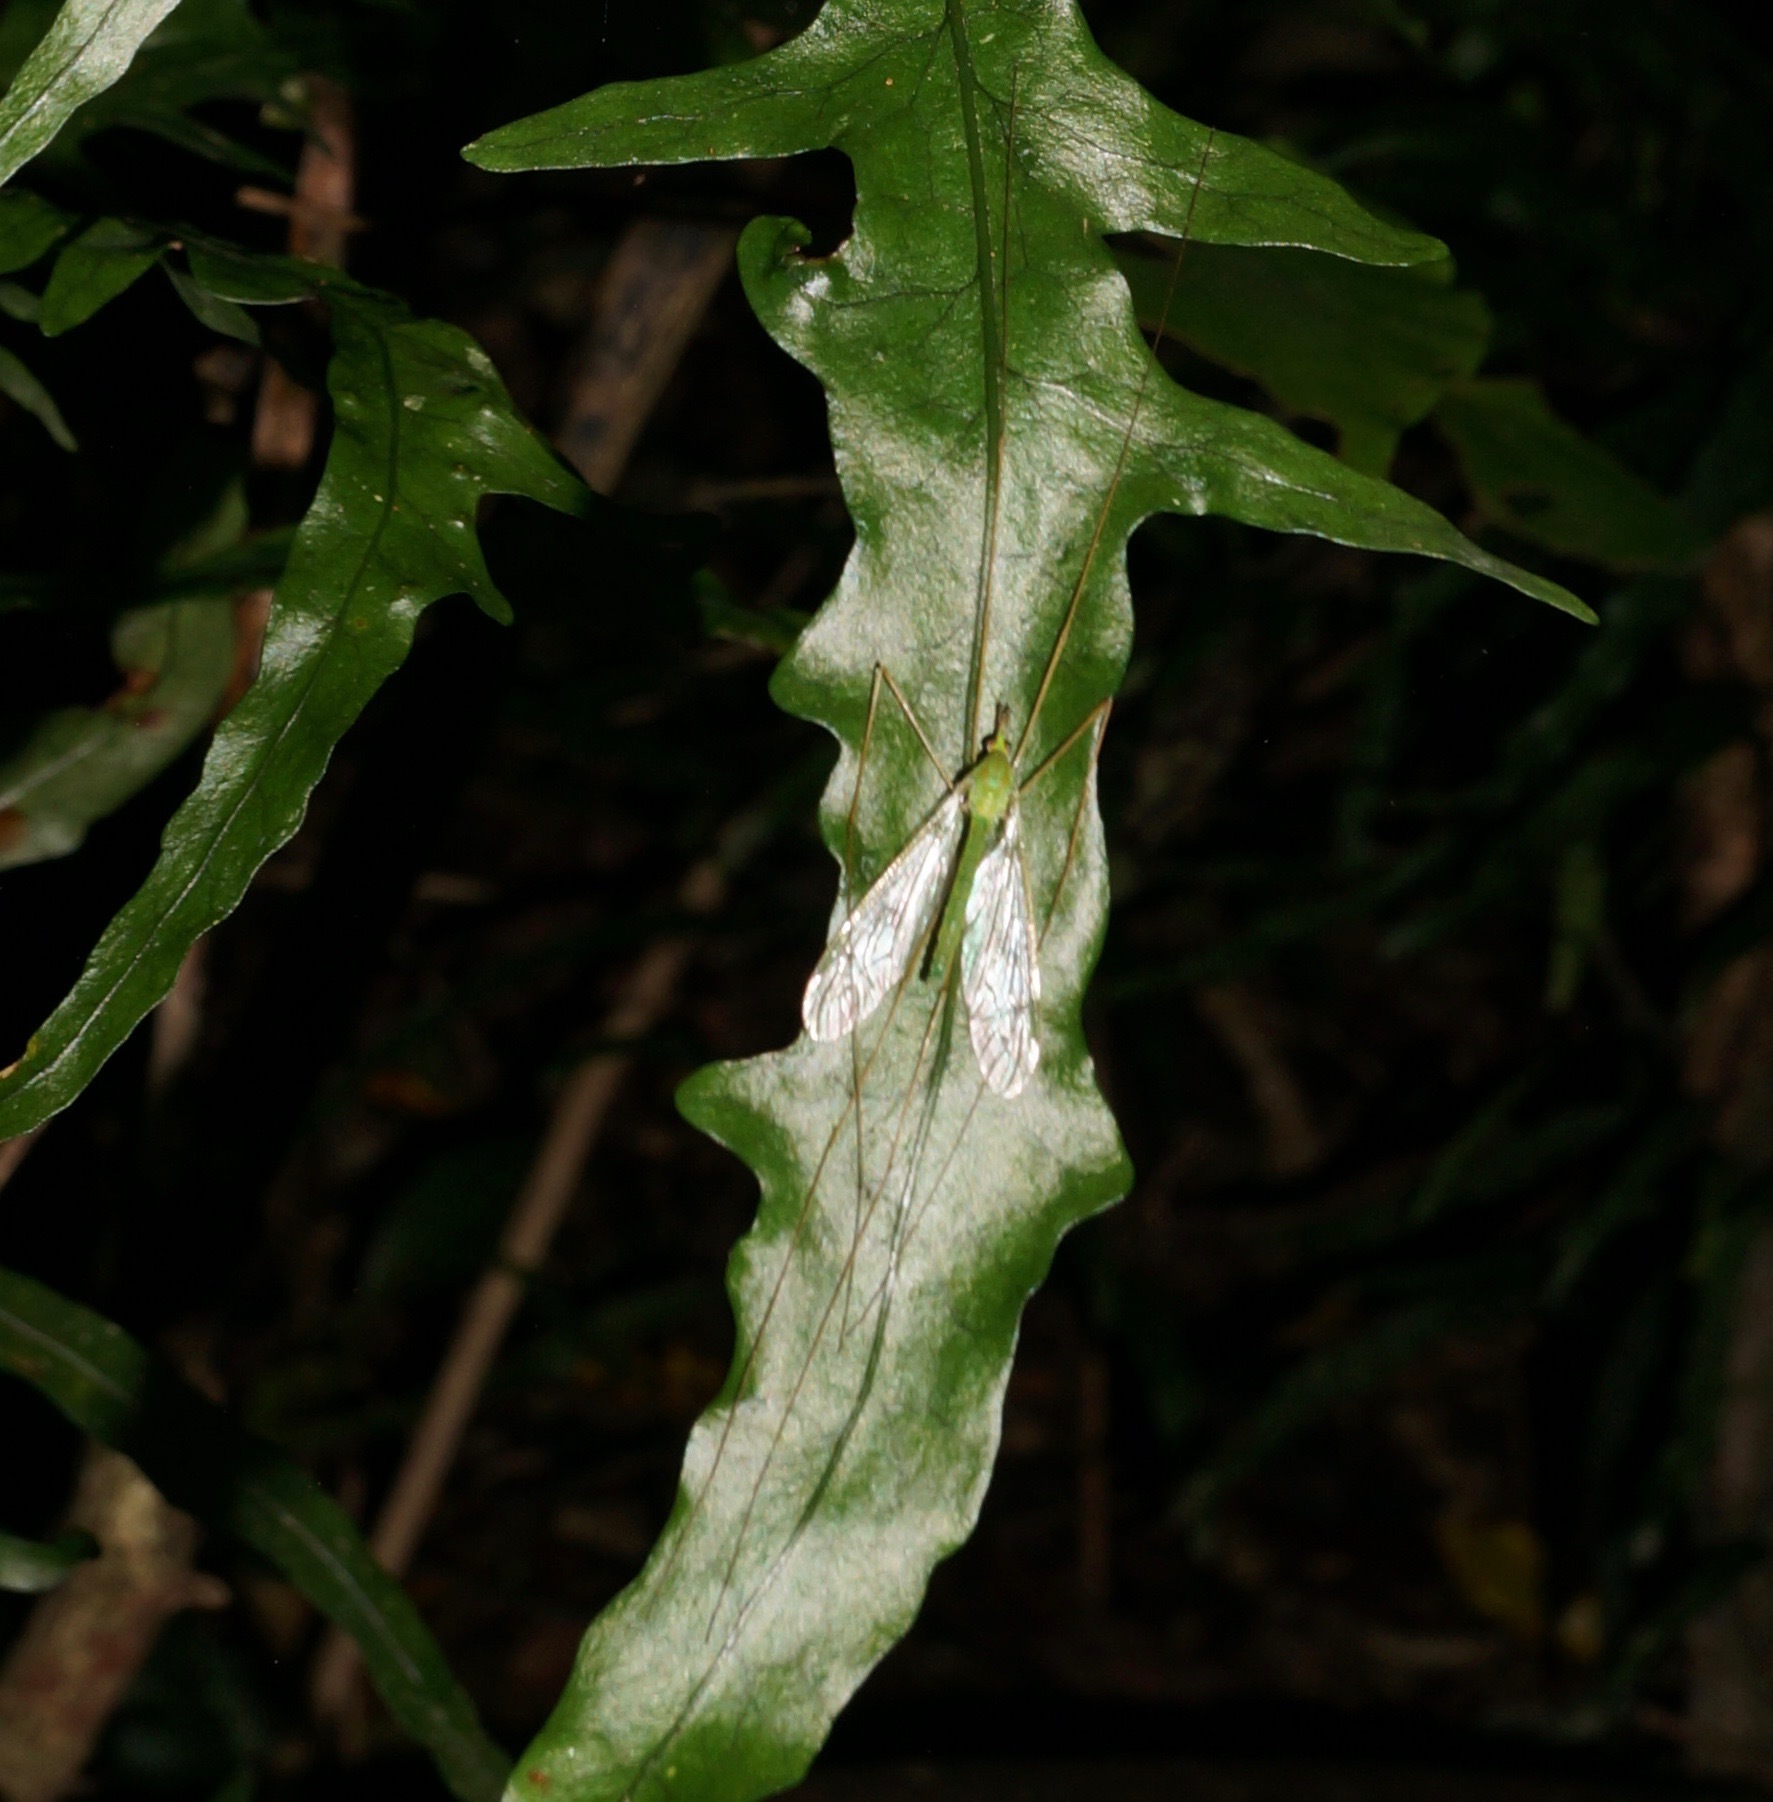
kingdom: Animalia
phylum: Arthropoda
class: Insecta
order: Diptera
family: Tipulidae
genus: Leptotarsus
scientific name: Leptotarsus virescens
